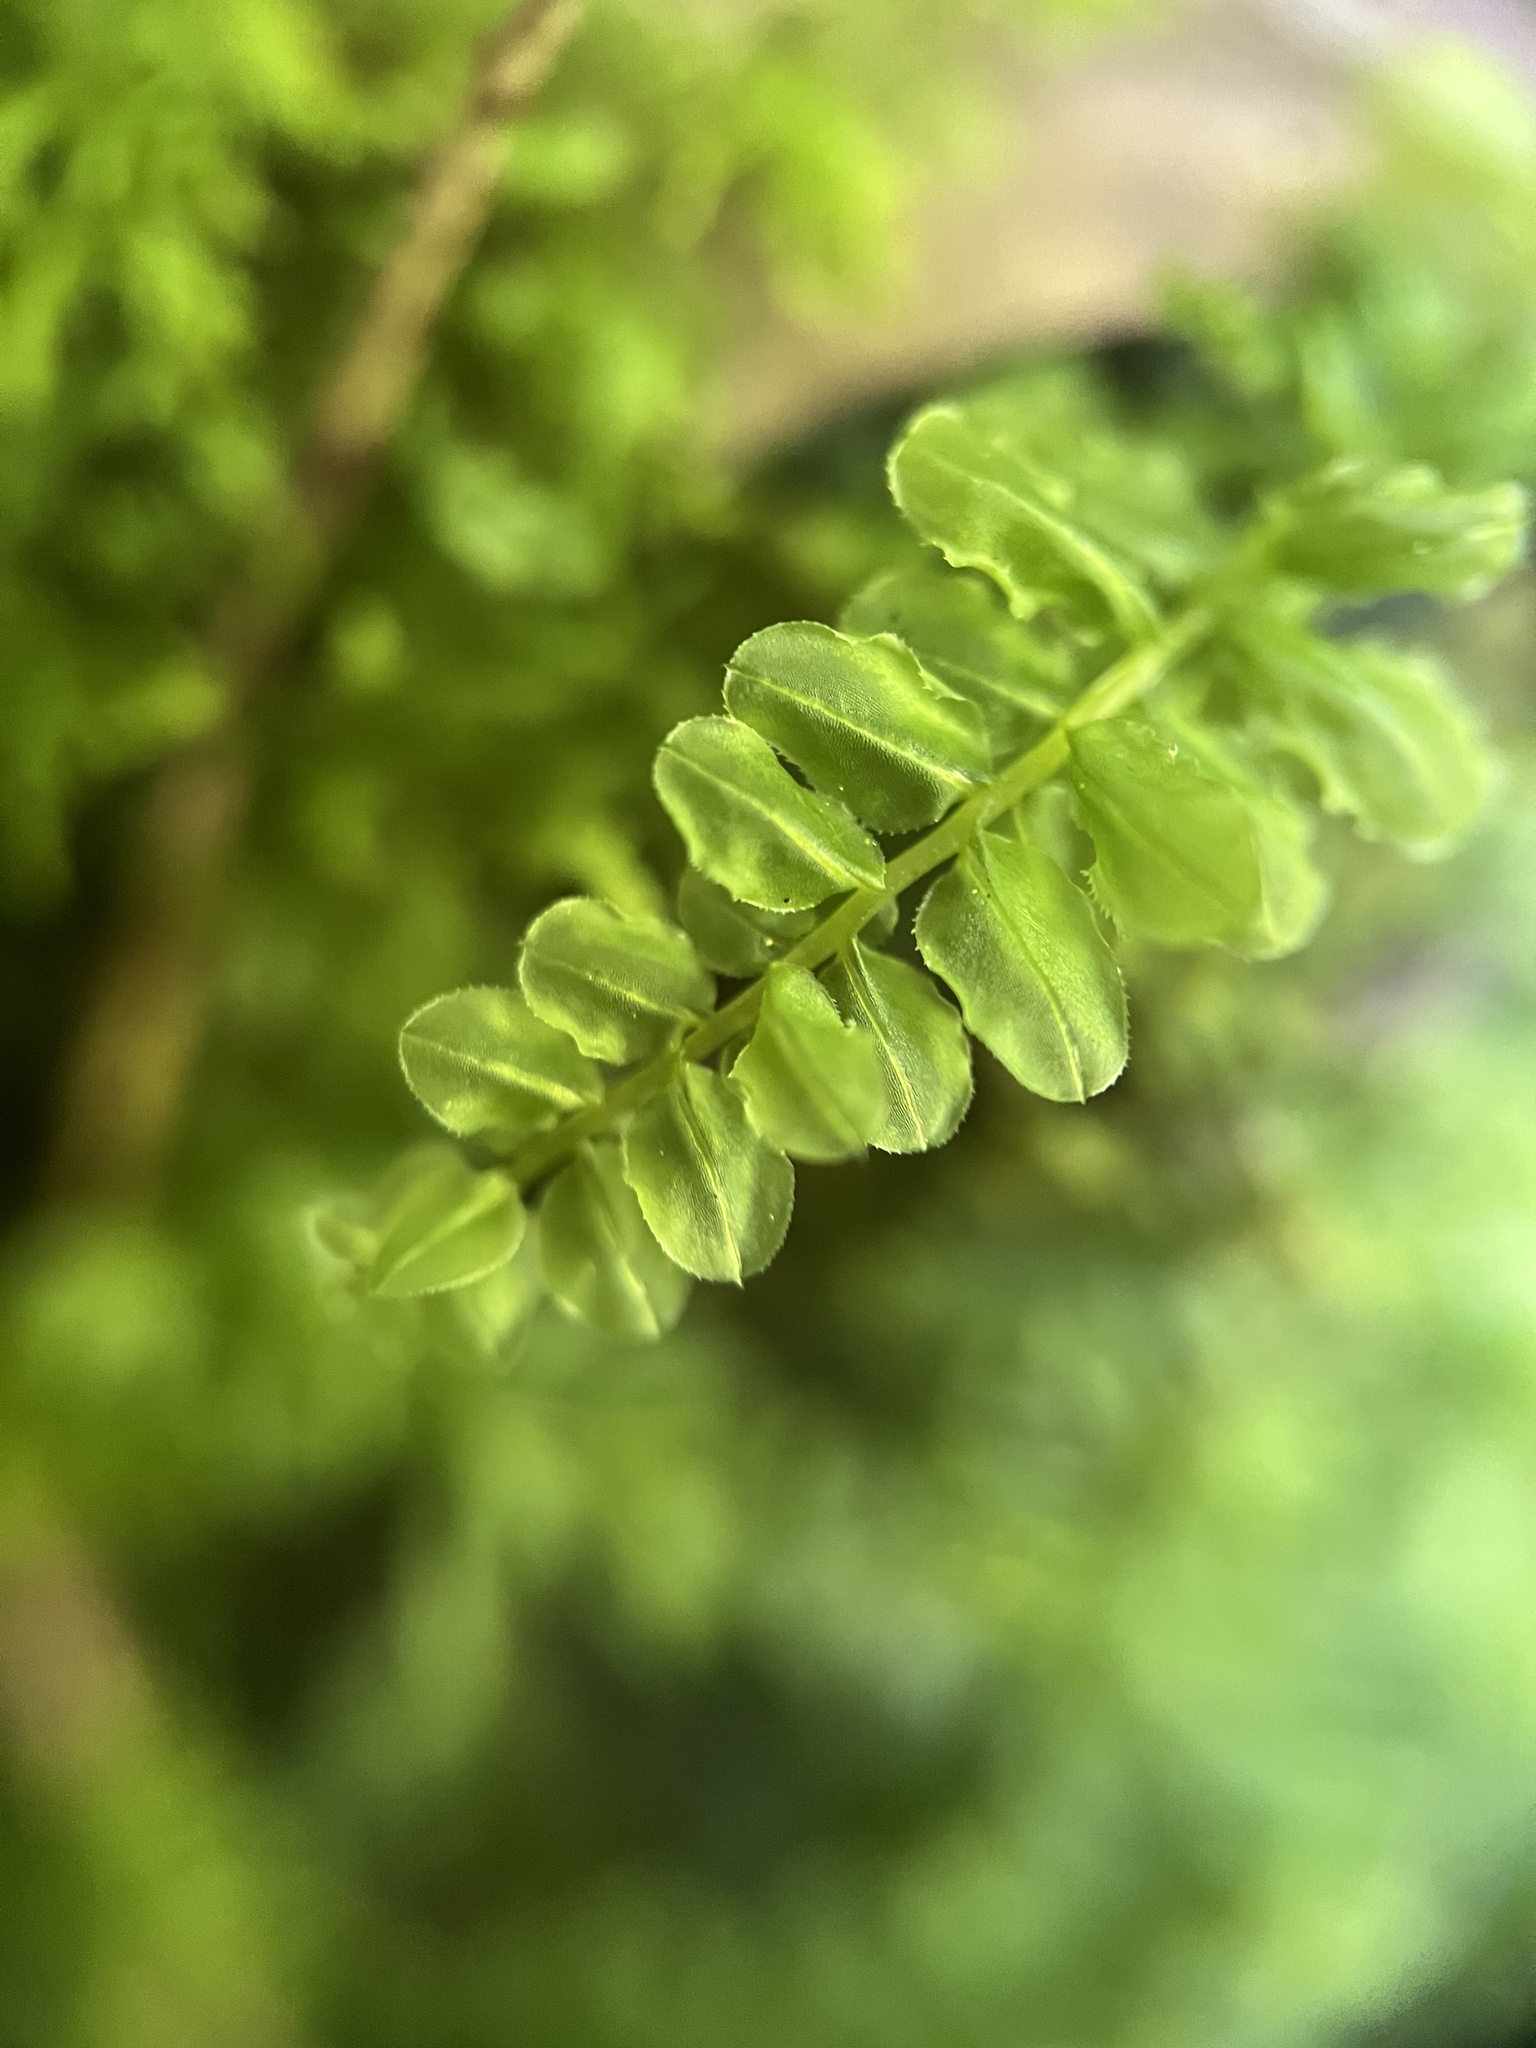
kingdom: Plantae
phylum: Bryophyta
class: Bryopsida
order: Bryales
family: Mniaceae
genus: Plagiomnium
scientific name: Plagiomnium ciliare
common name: Toothed leafy moss
